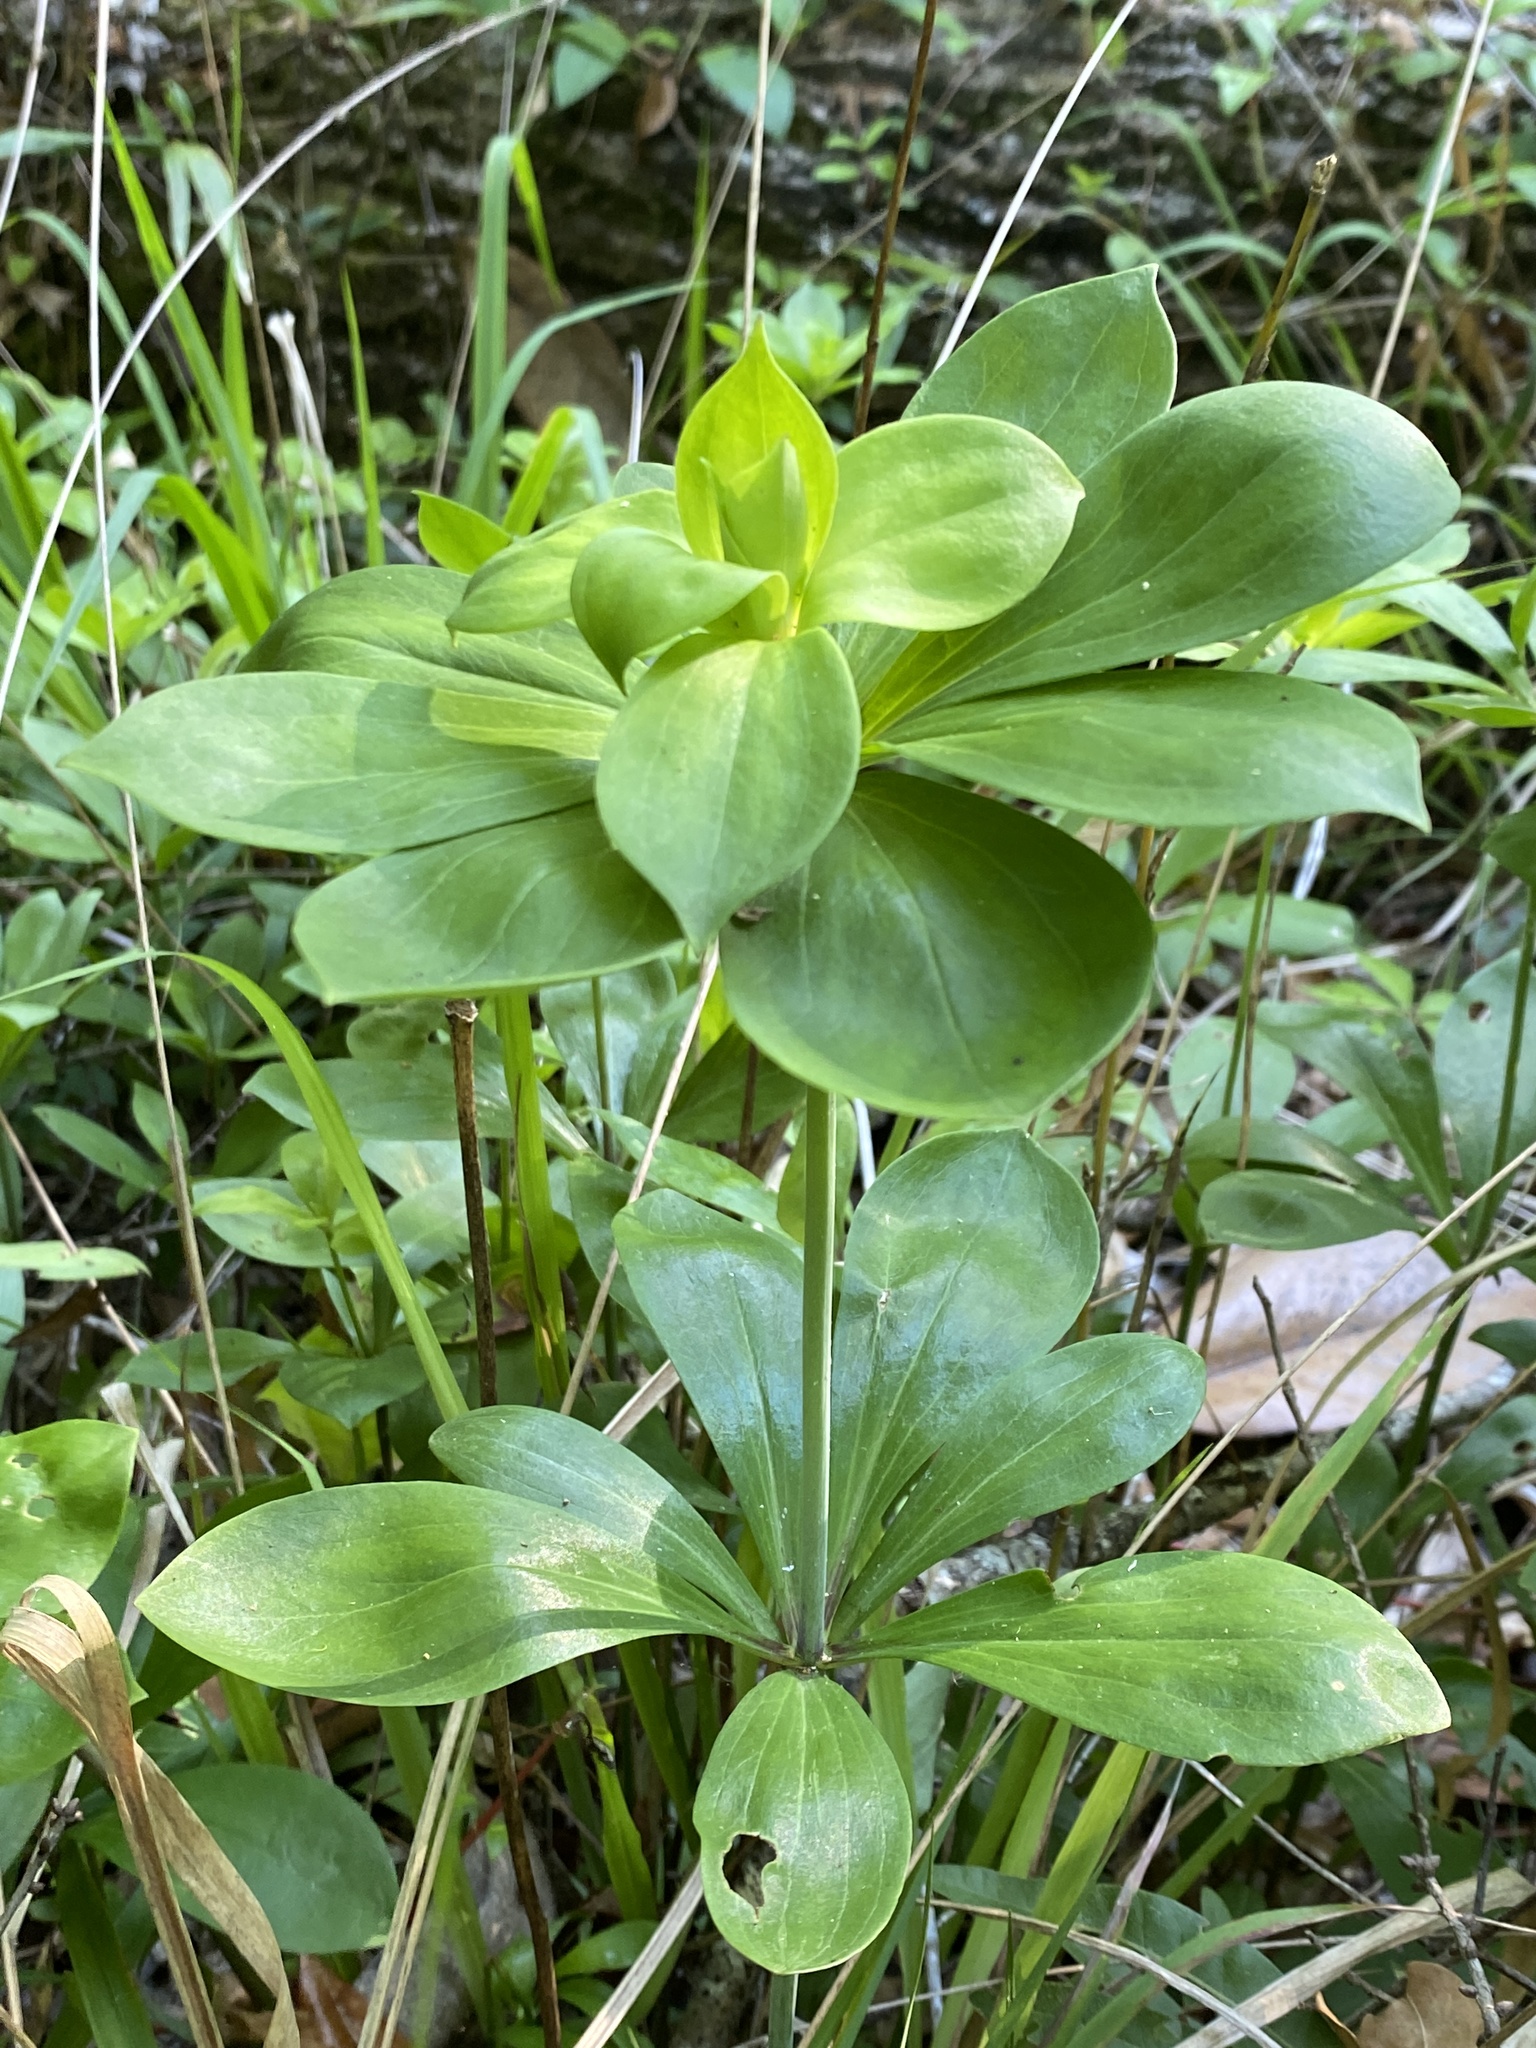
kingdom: Plantae
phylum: Tracheophyta
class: Liliopsida
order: Liliales
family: Liliaceae
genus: Lilium
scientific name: Lilium michauxii
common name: Carolina lily
